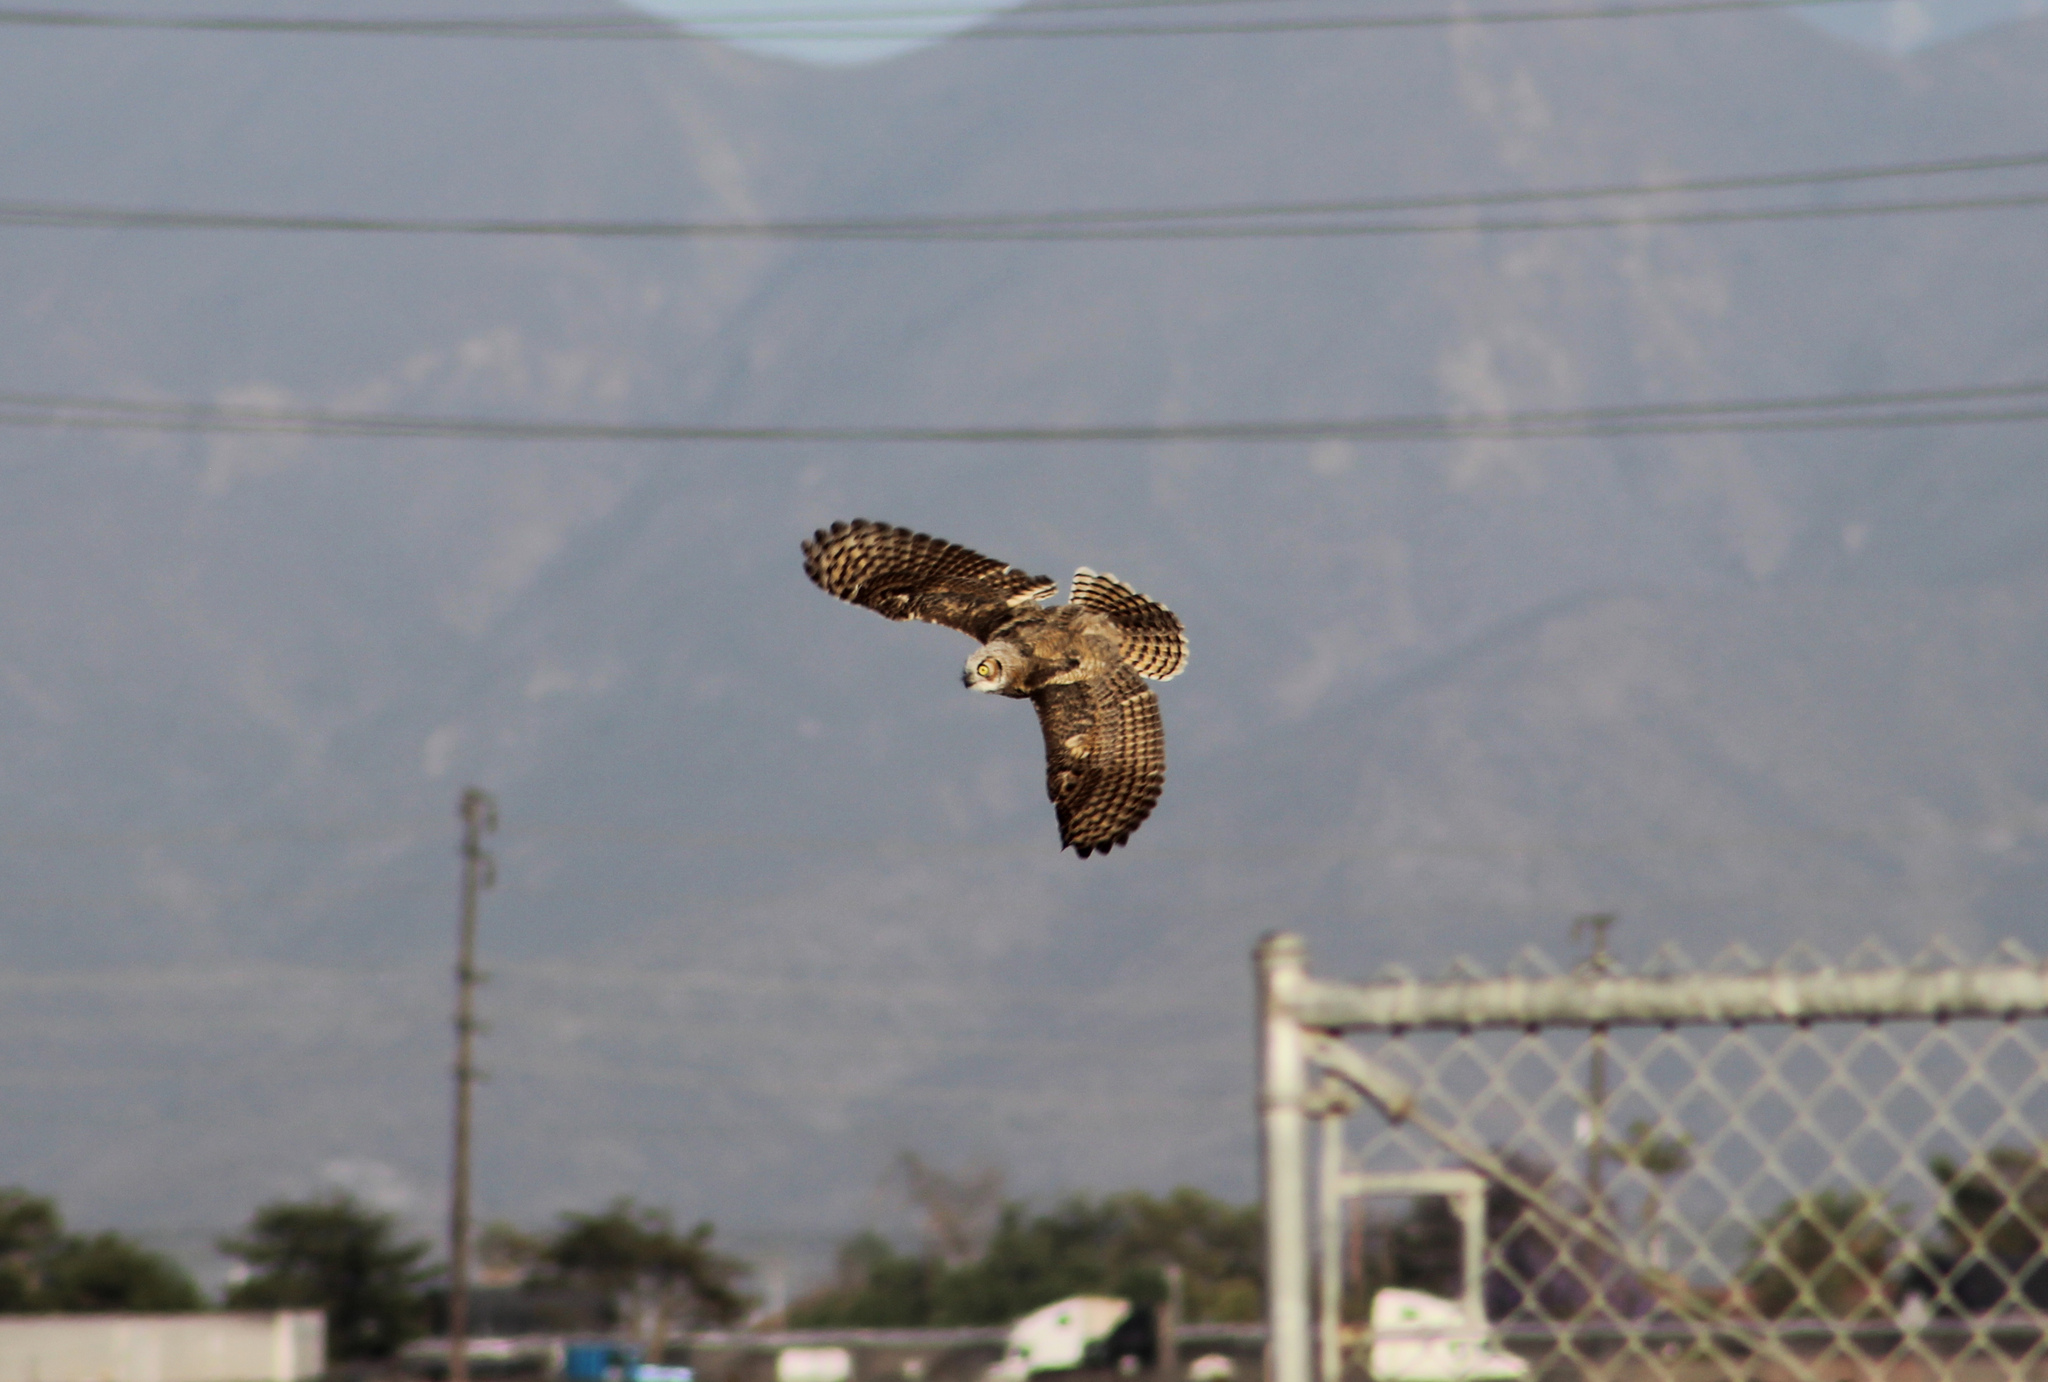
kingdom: Animalia
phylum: Chordata
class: Aves
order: Strigiformes
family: Strigidae
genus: Bubo
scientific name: Bubo virginianus
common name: Great horned owl
